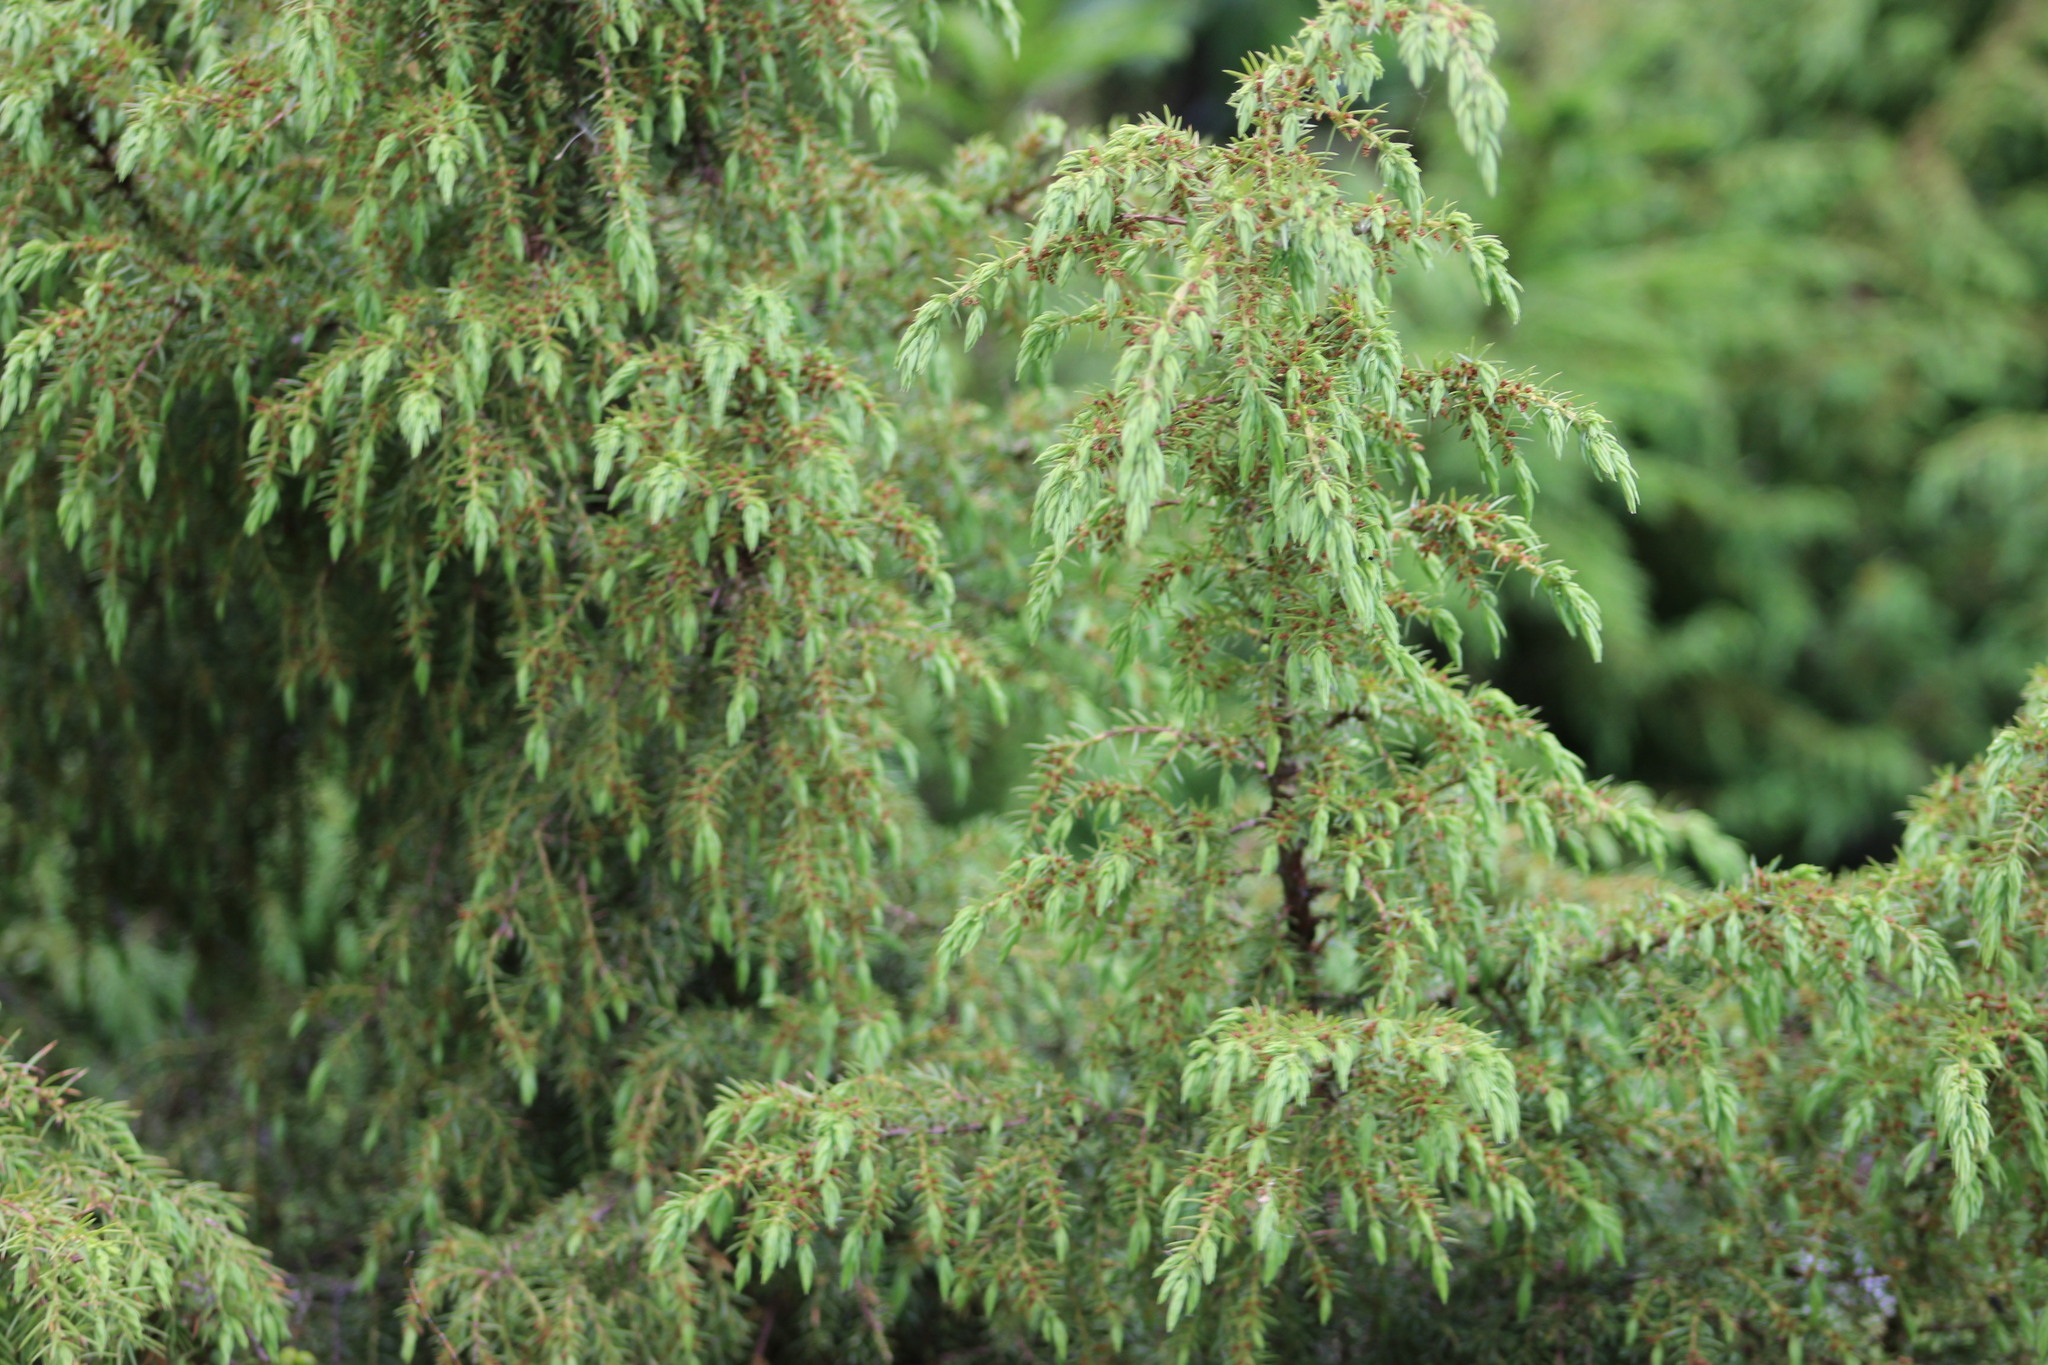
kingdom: Plantae
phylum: Tracheophyta
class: Pinopsida
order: Pinales
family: Cupressaceae
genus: Juniperus
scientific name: Juniperus communis
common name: Common juniper
